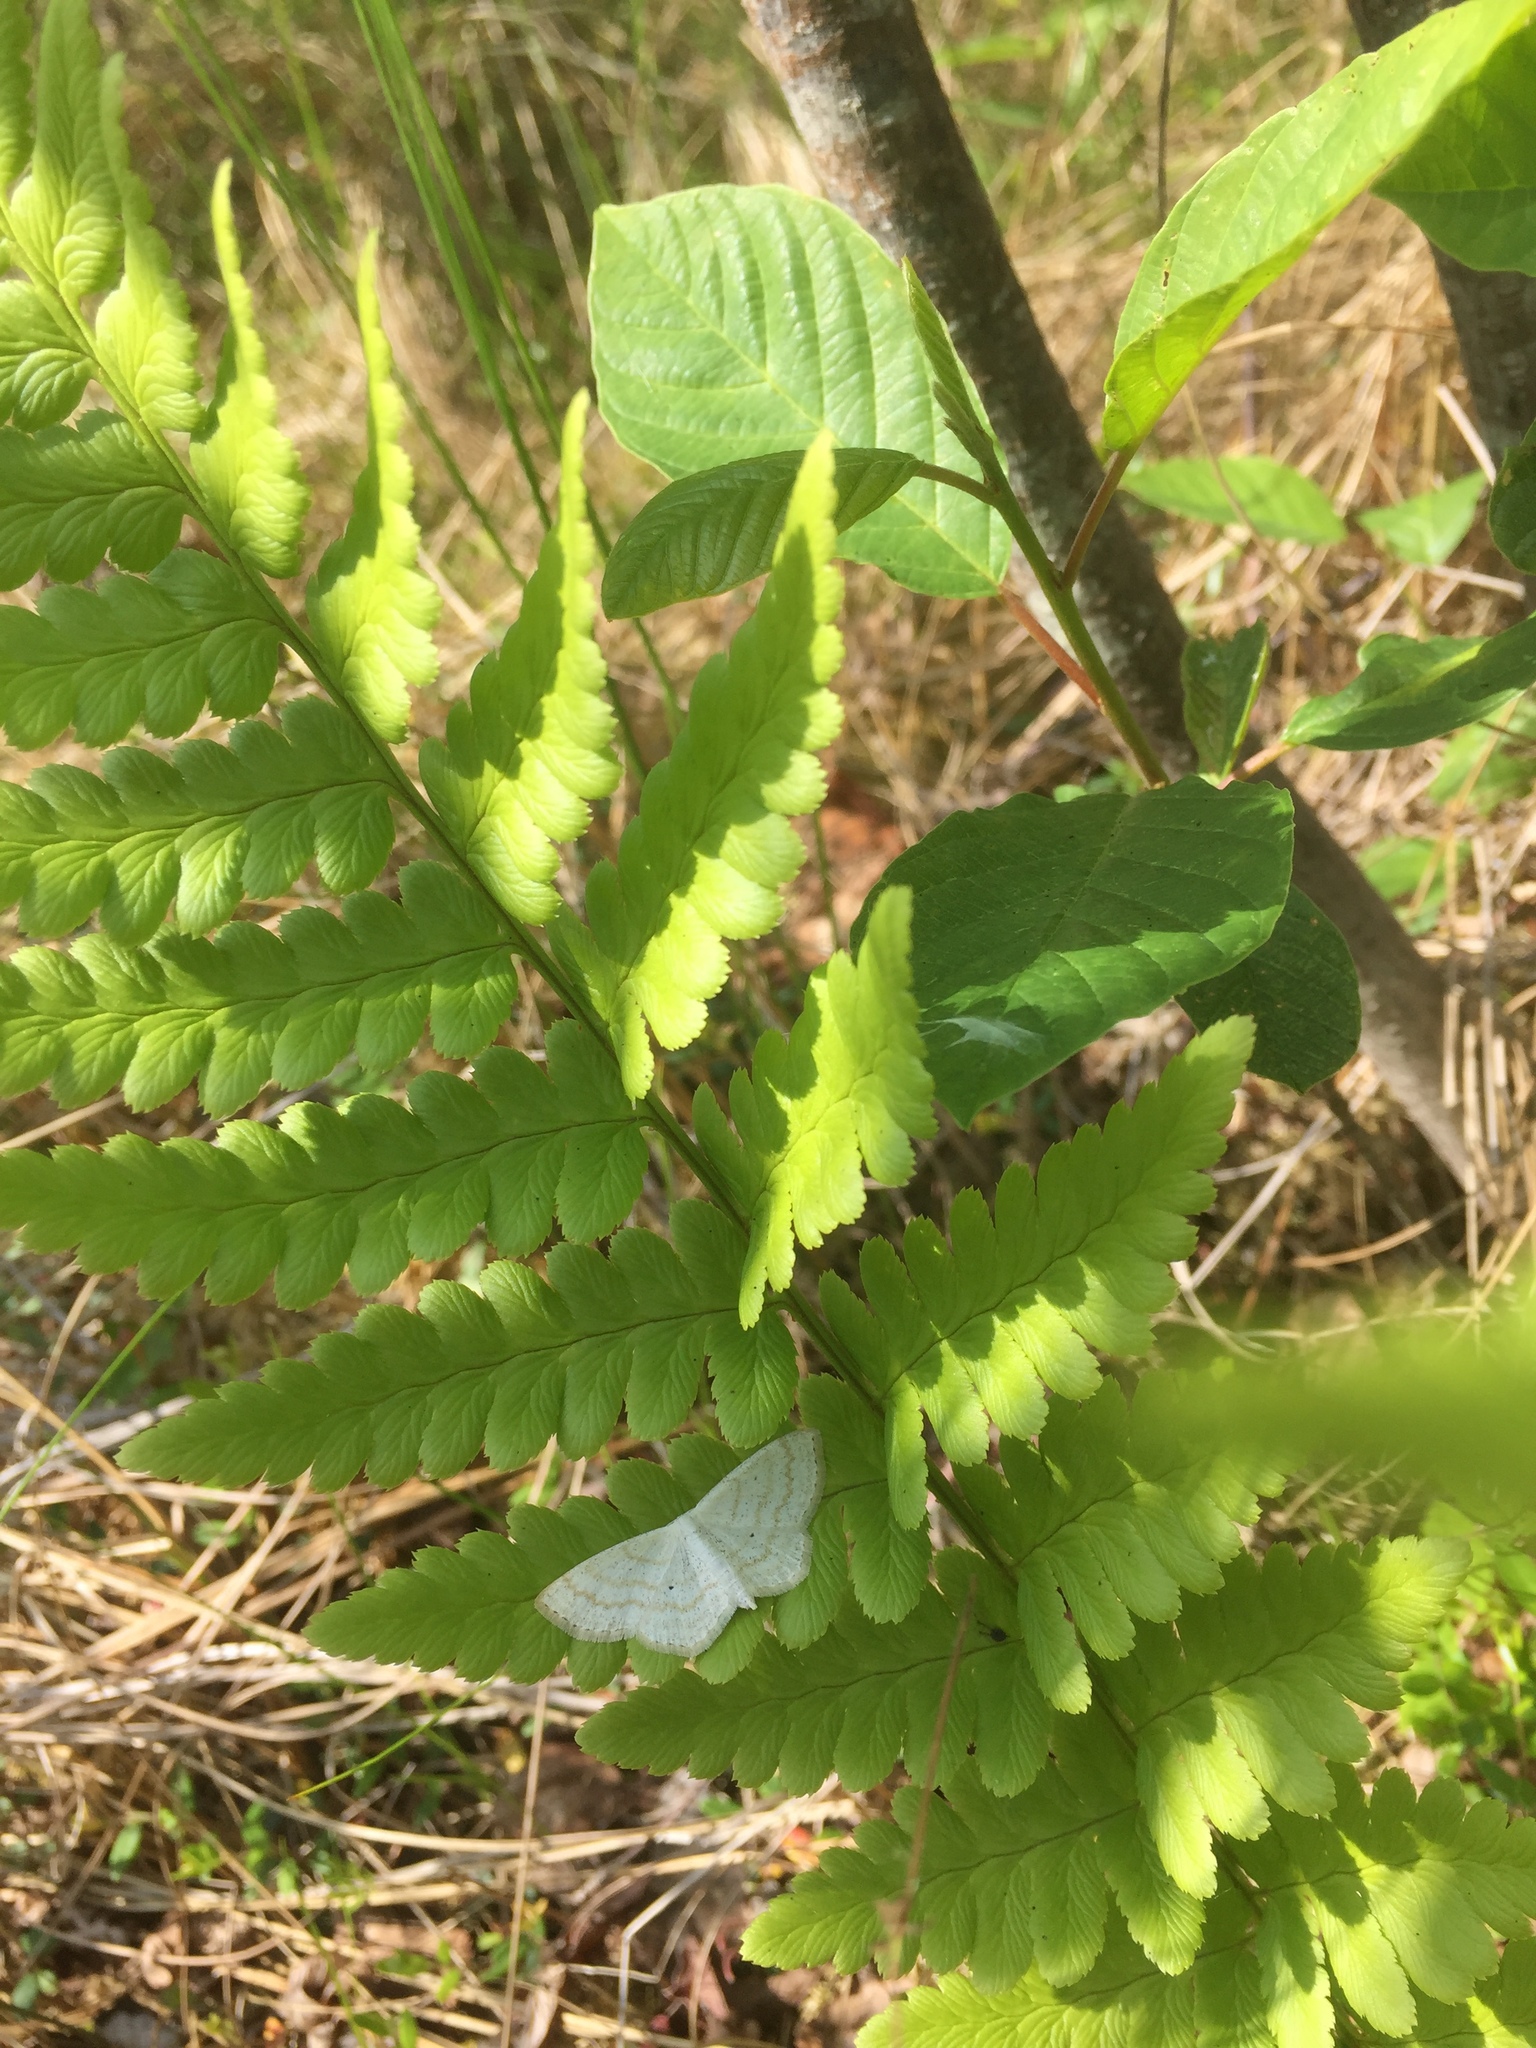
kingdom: Plantae
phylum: Tracheophyta
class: Polypodiopsida
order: Polypodiales
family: Dryopteridaceae
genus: Dryopteris
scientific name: Dryopteris cristata
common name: Crested wood fern
